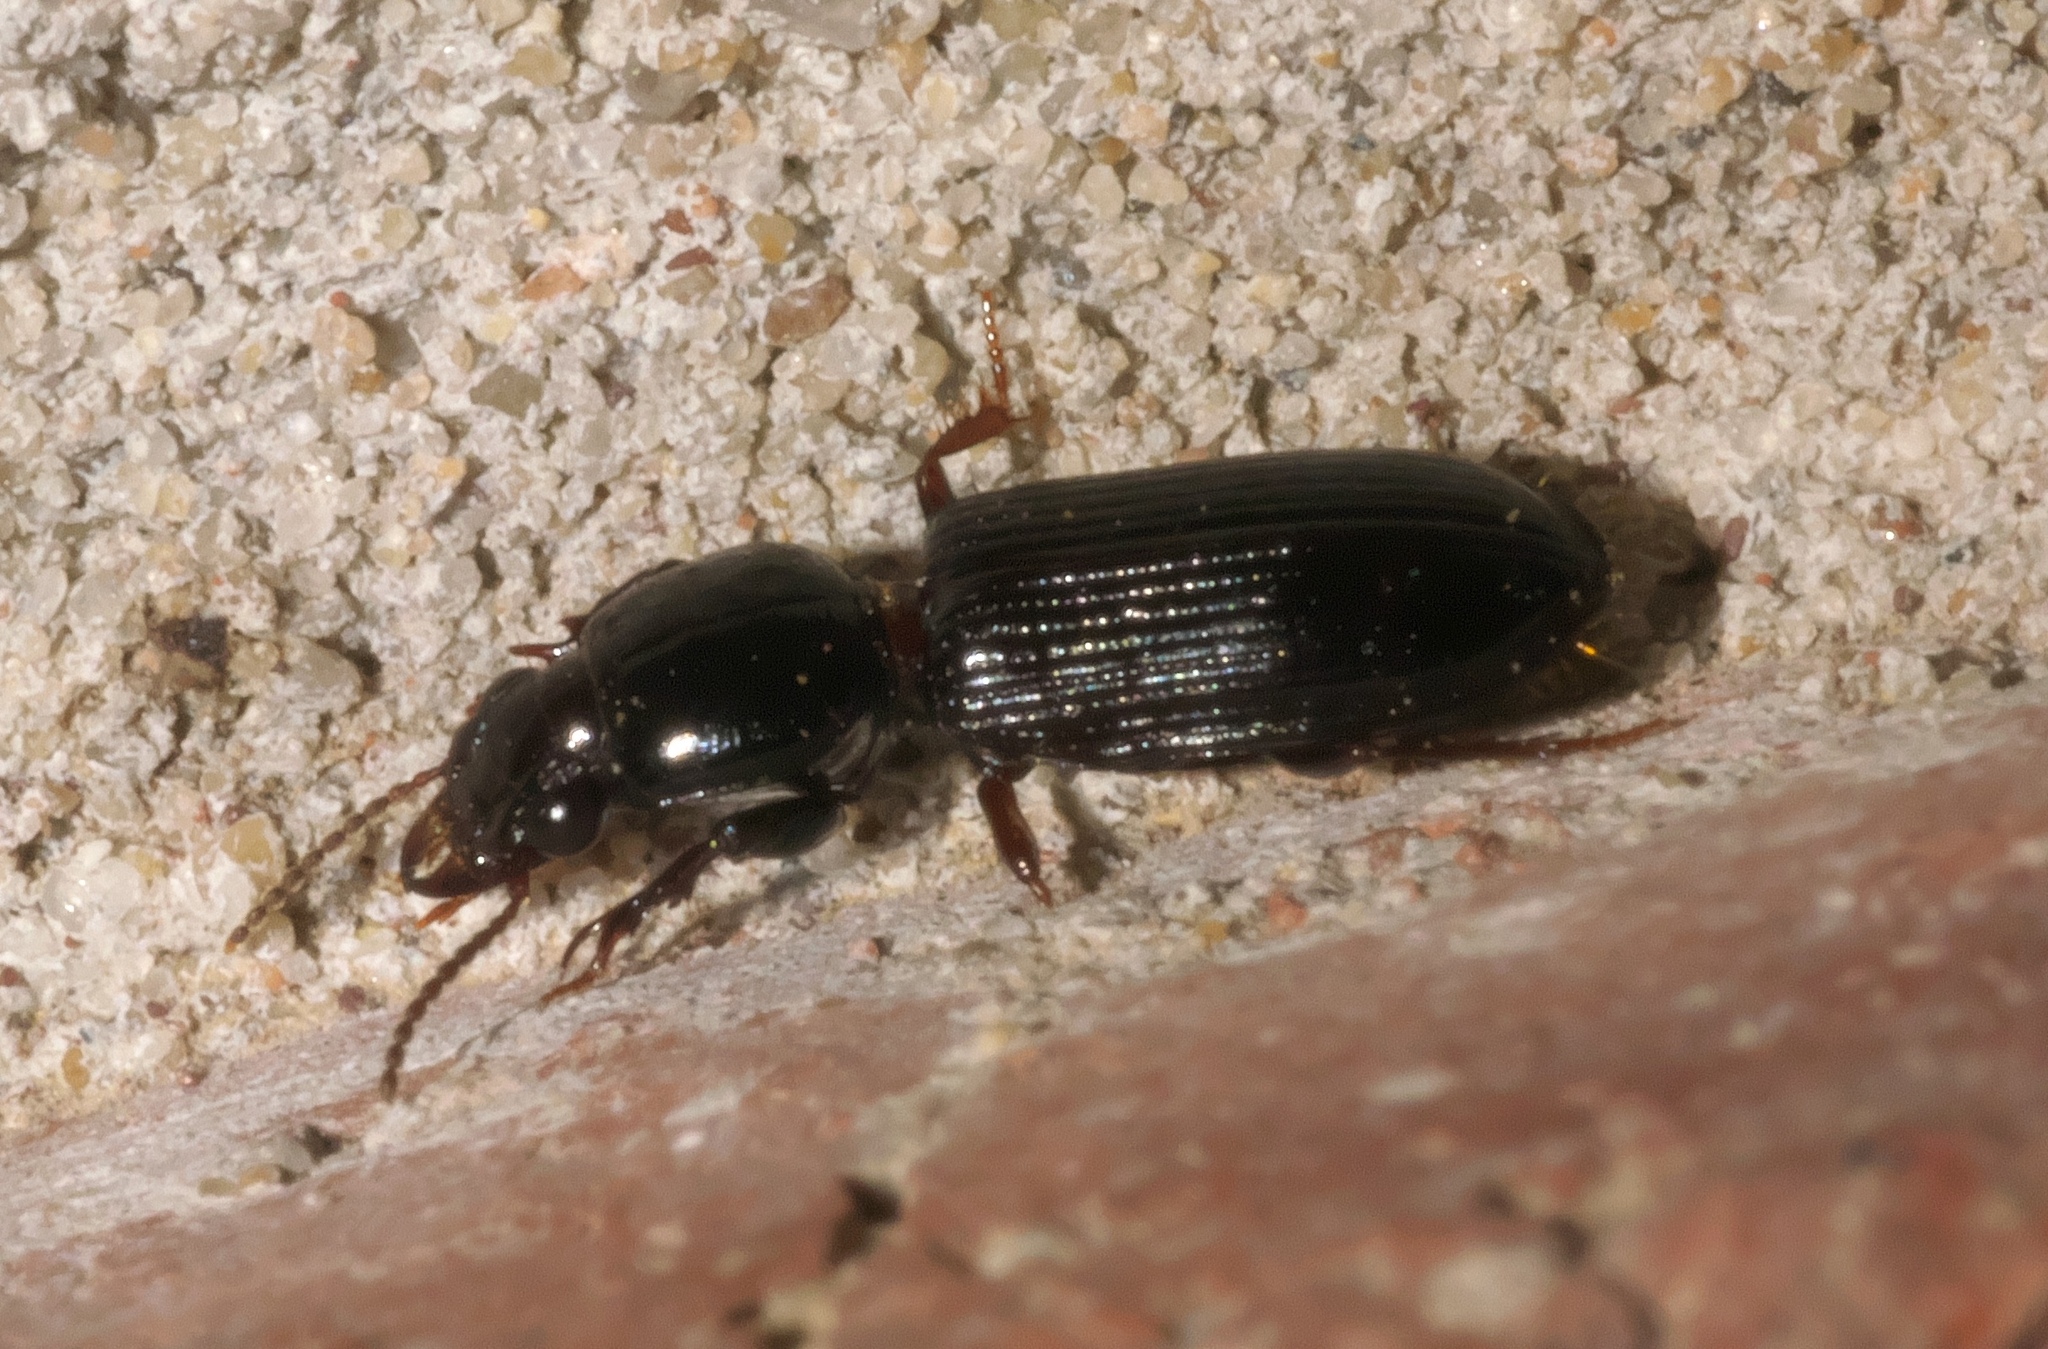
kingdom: Animalia
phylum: Arthropoda
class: Insecta
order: Coleoptera
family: Carabidae
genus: Semiclivina
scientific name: Semiclivina dentipes
